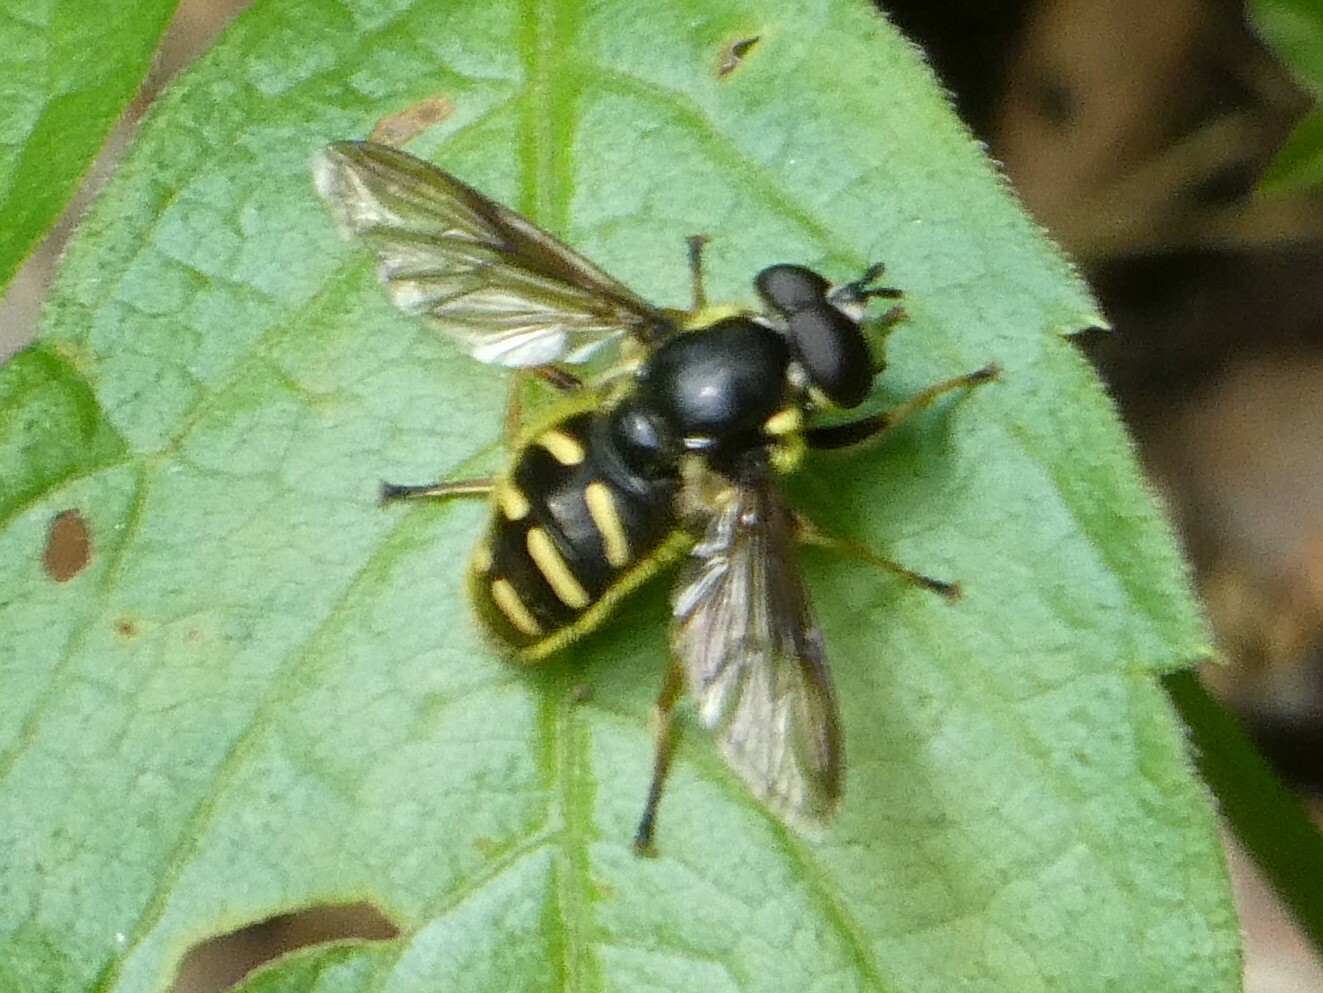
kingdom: Animalia
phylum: Arthropoda
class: Insecta
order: Diptera
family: Syrphidae
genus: Sericomyia
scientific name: Sericomyia chrysotoxoides
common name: Oblique-banded pond fly
